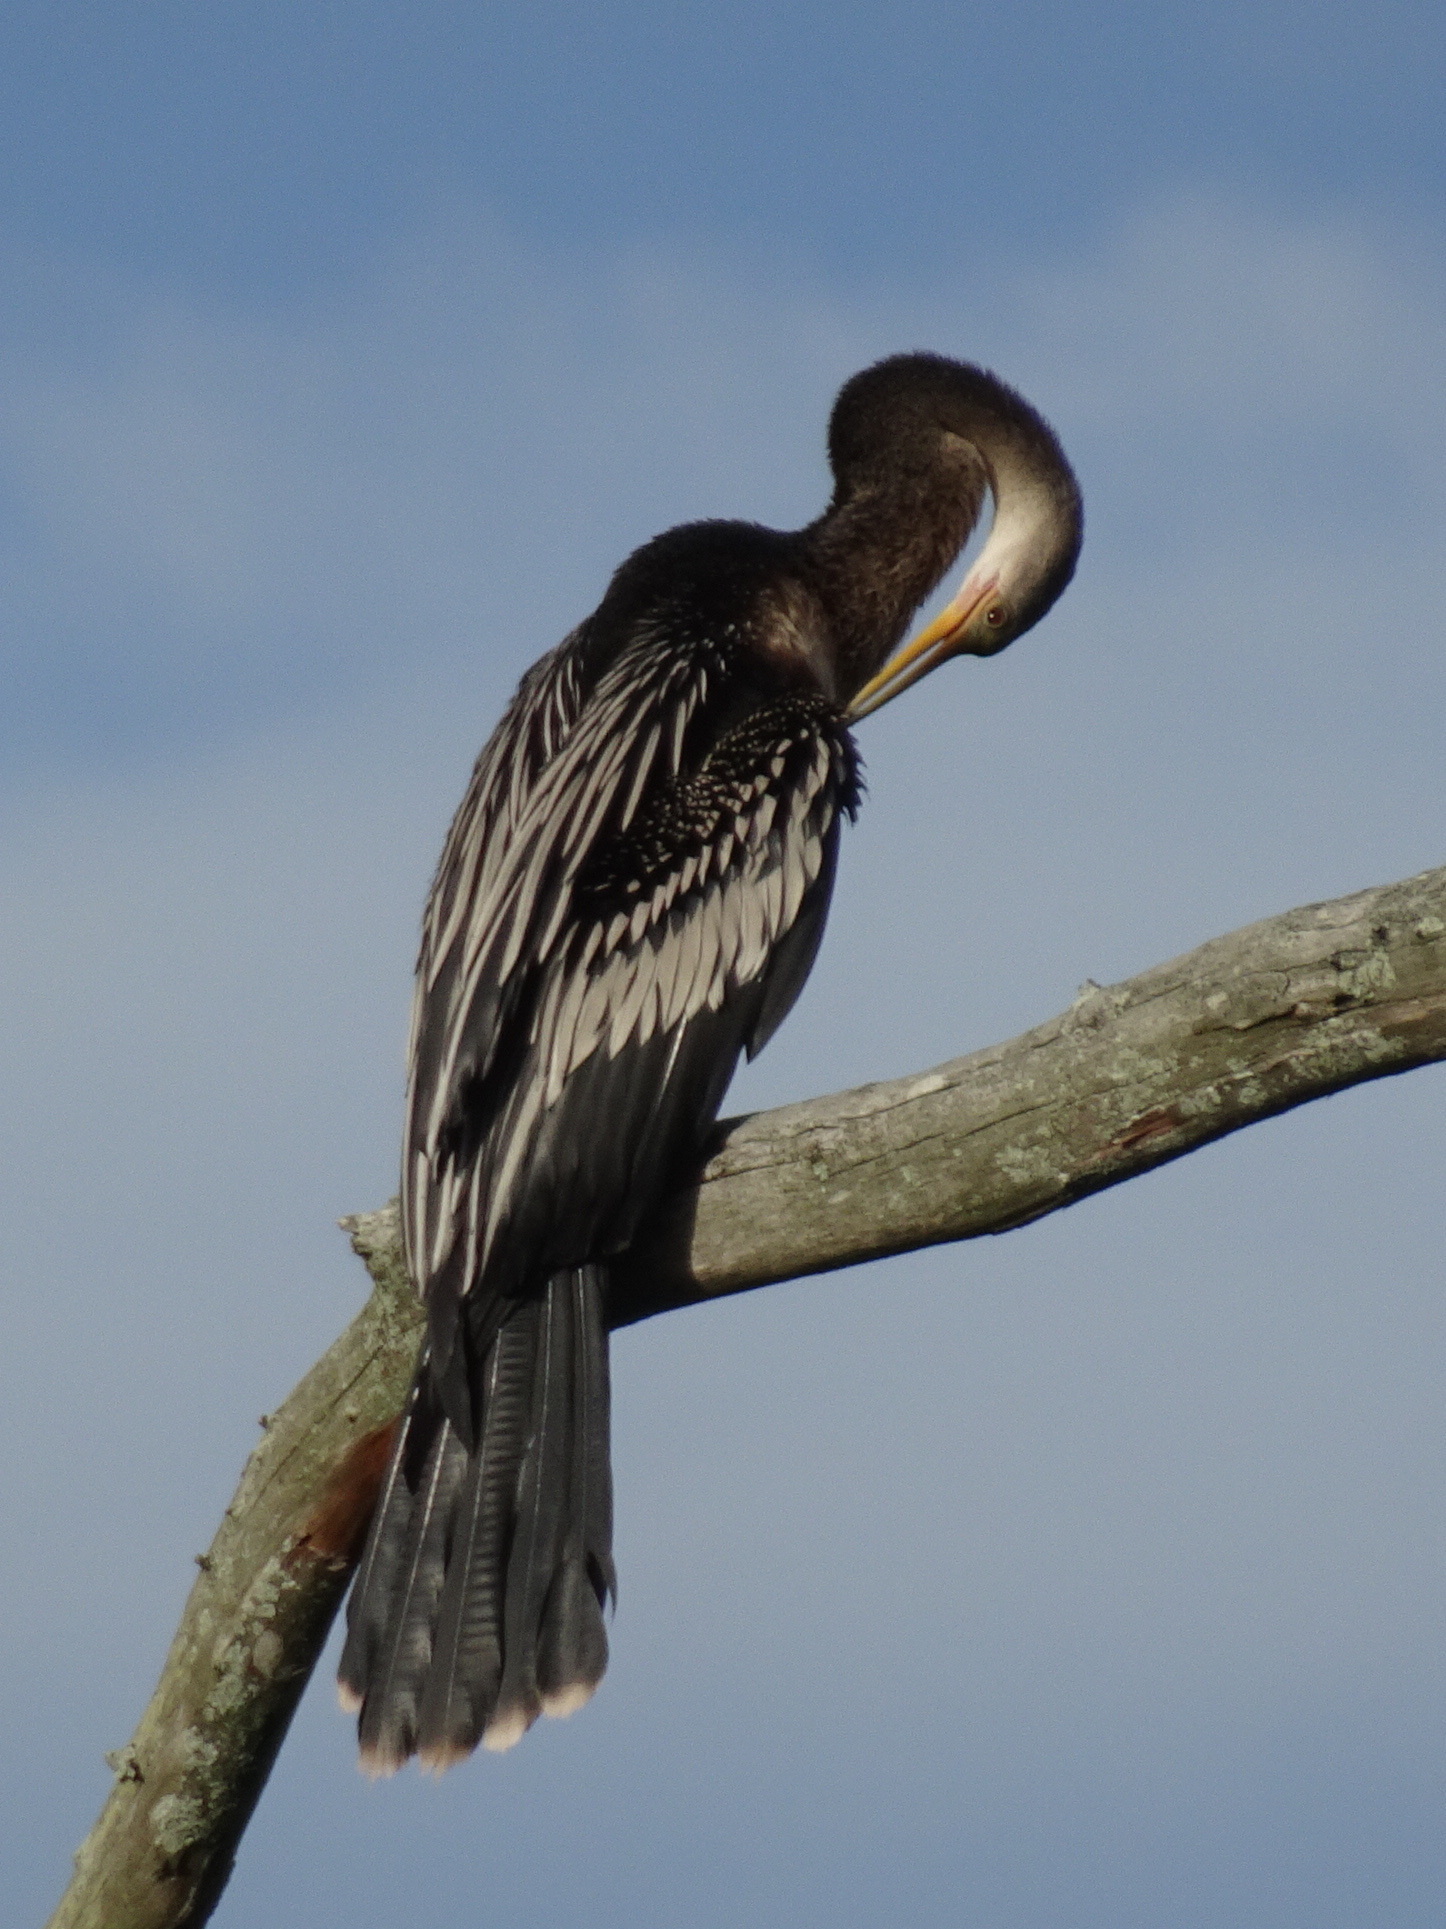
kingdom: Animalia
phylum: Chordata
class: Aves
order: Suliformes
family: Anhingidae
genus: Anhinga
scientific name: Anhinga anhinga
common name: Anhinga
